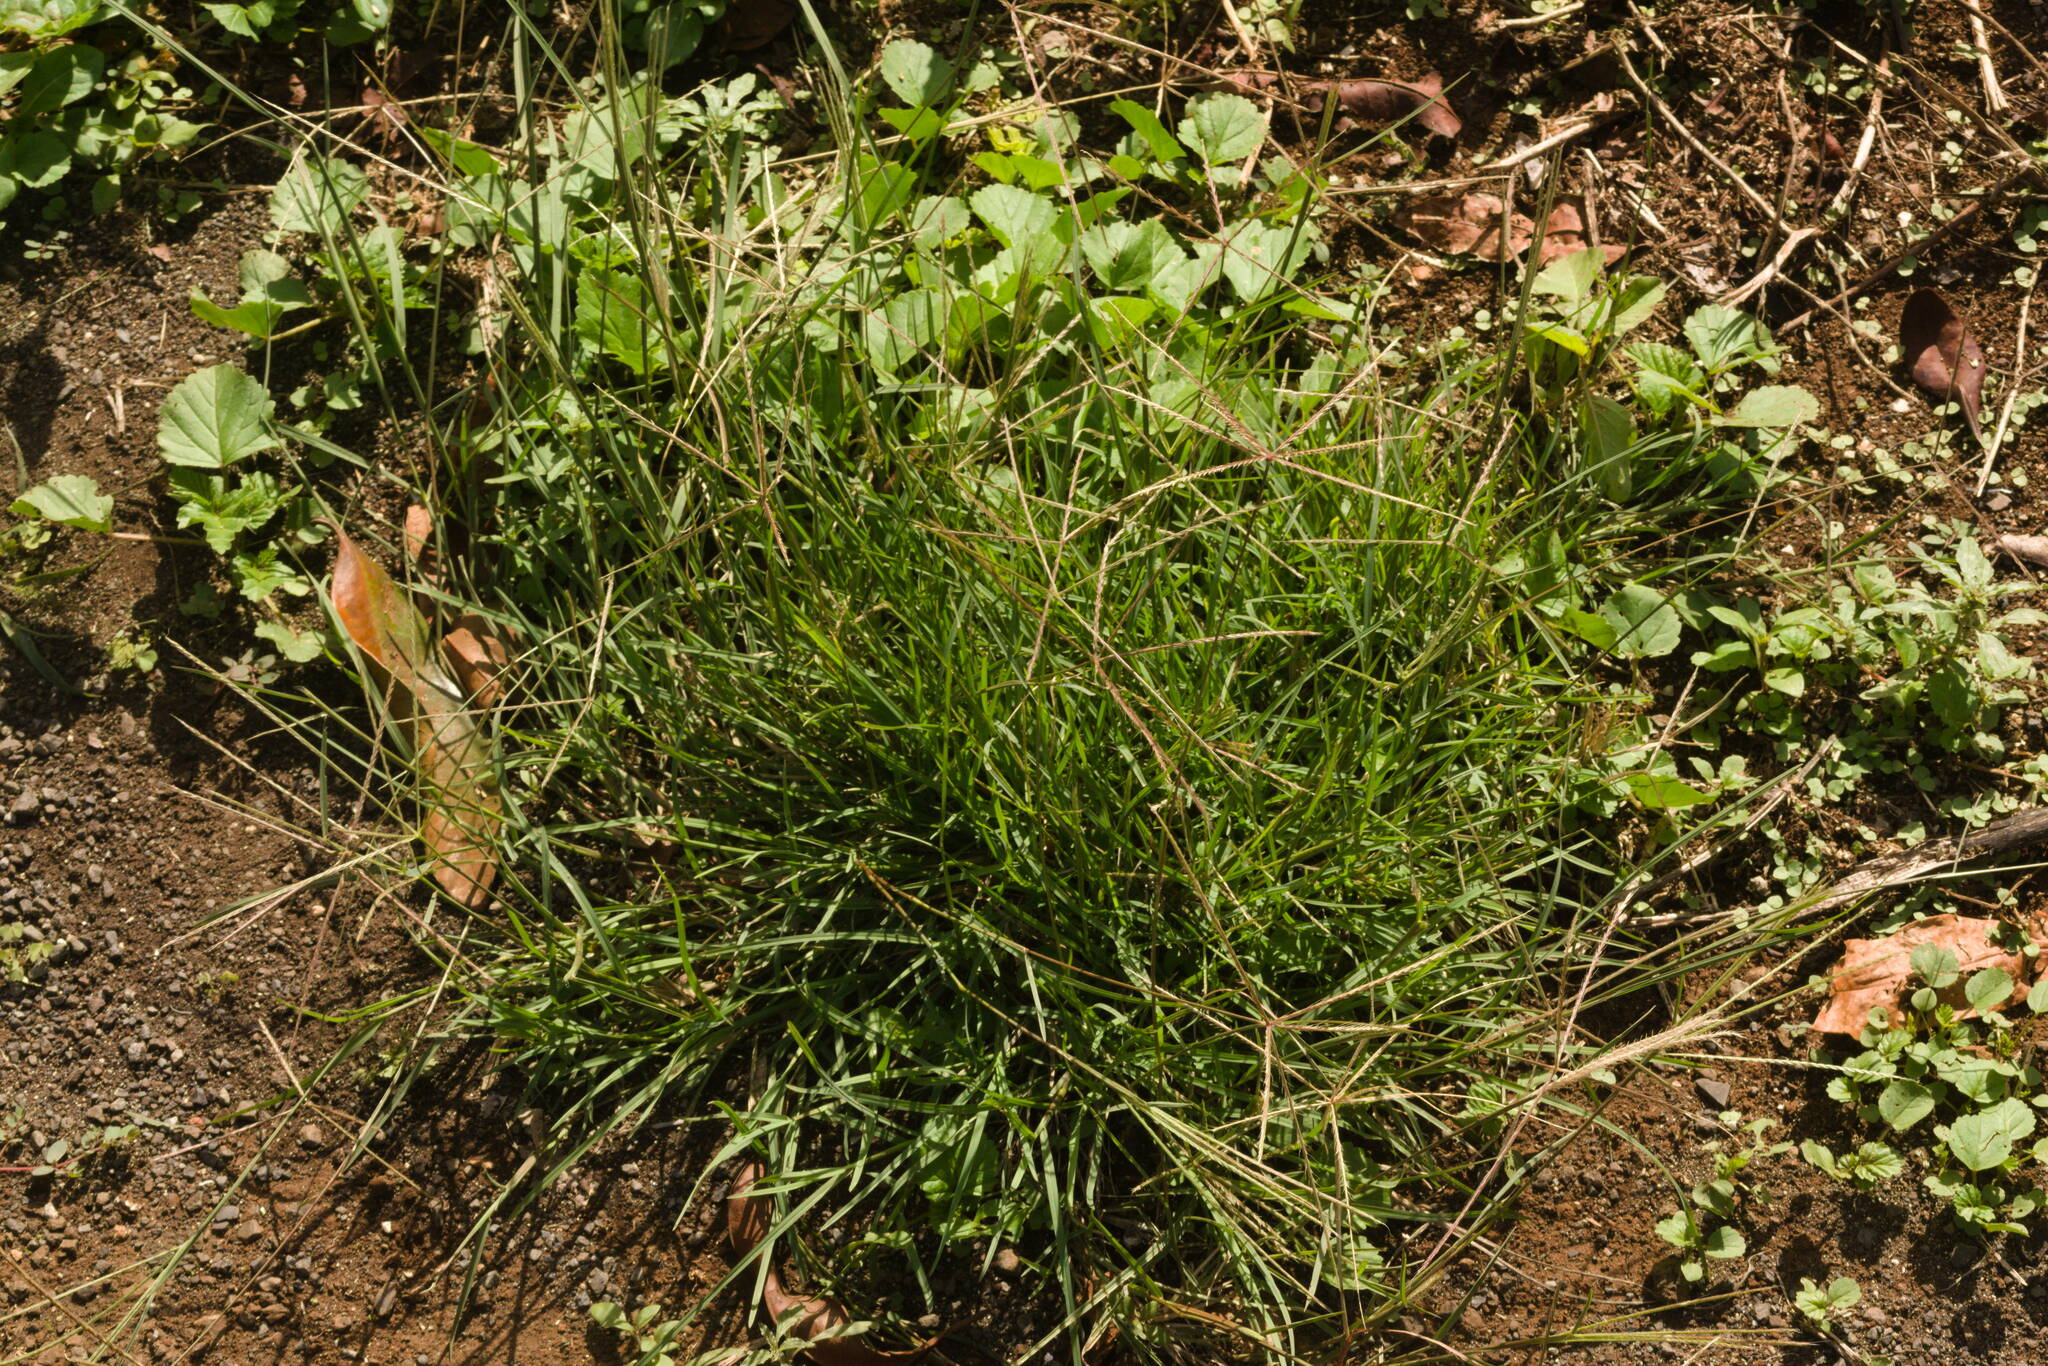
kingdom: Plantae
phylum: Tracheophyta
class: Liliopsida
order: Poales
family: Poaceae
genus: Chloris
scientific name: Chloris divaricata
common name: Spreading windmill grass
